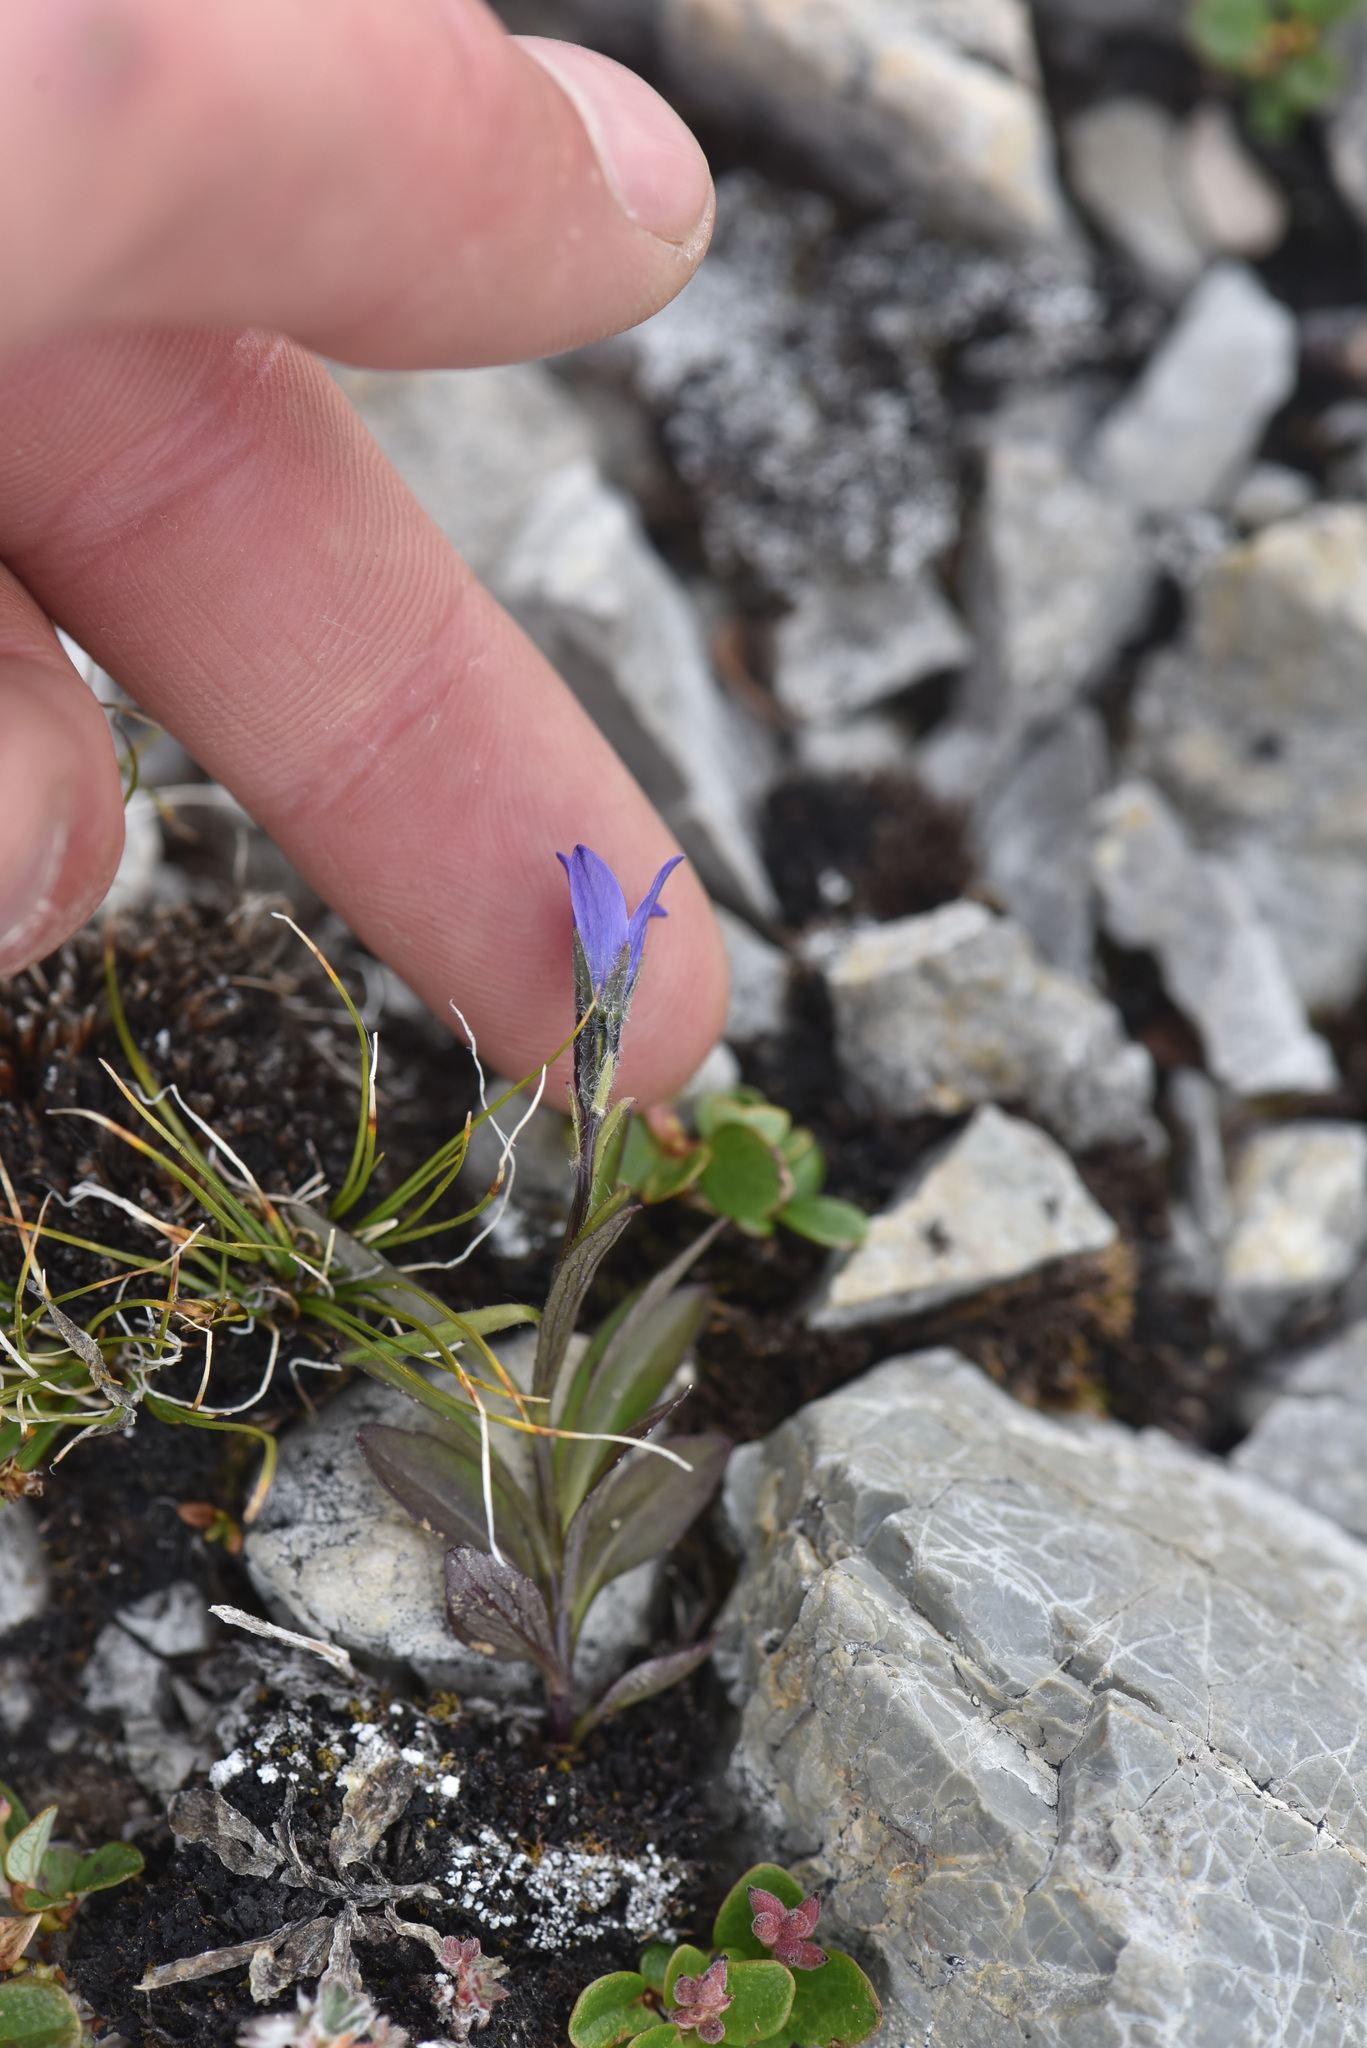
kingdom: Plantae
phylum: Tracheophyta
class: Magnoliopsida
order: Asterales
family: Campanulaceae
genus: Campanula
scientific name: Campanula uniflora
